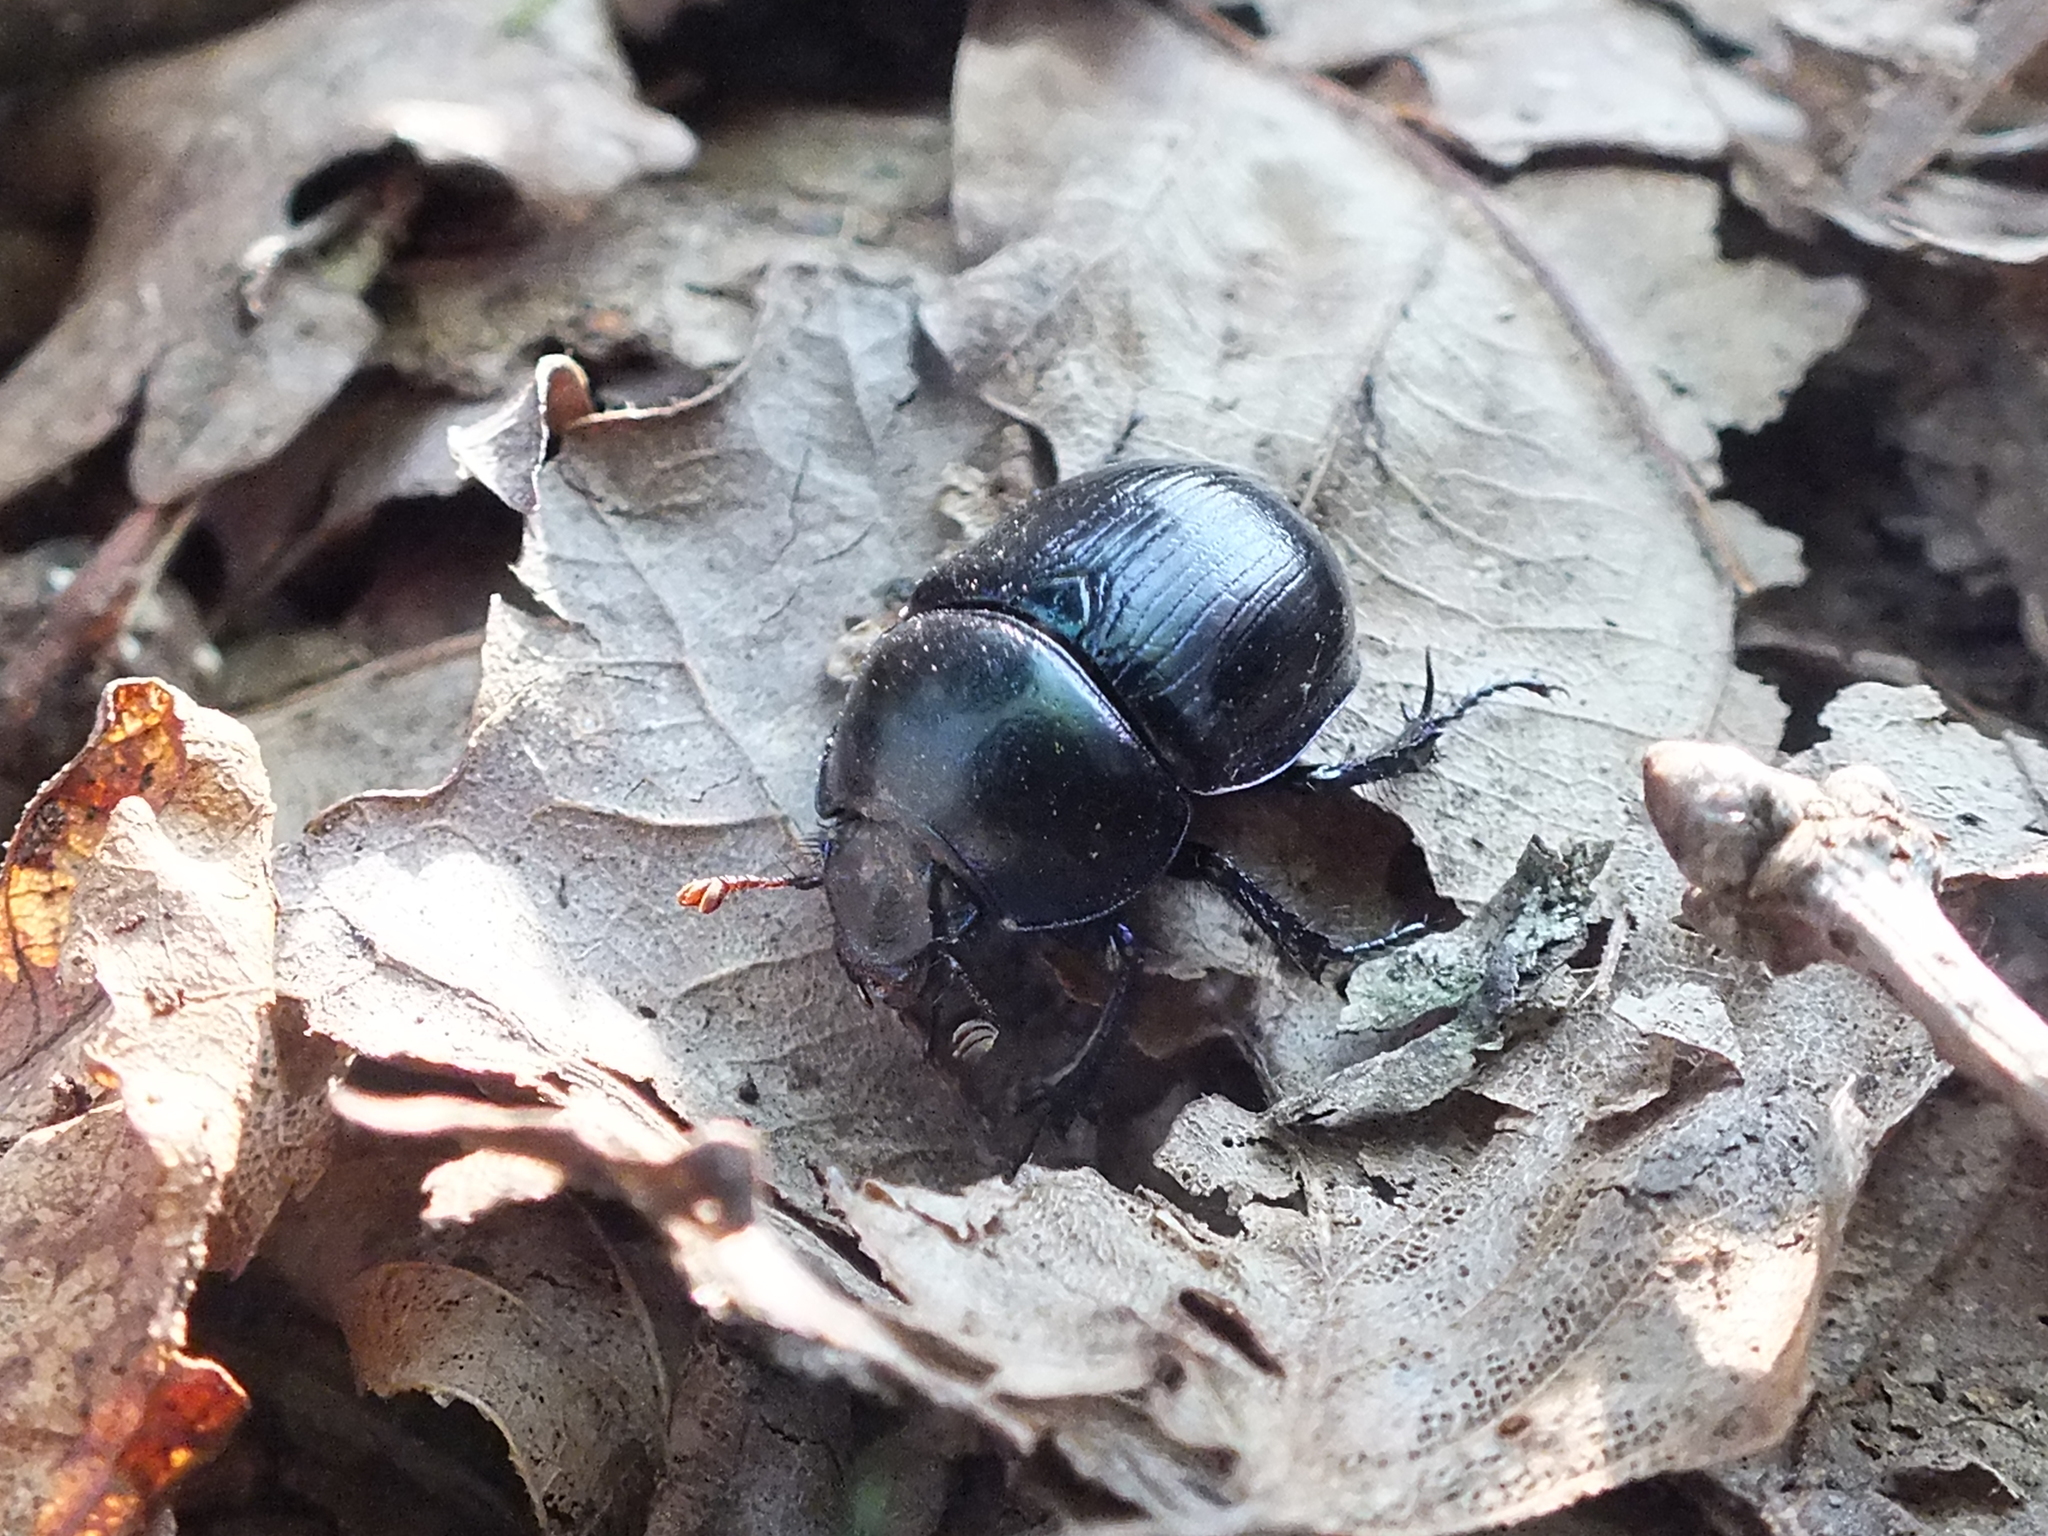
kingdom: Animalia
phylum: Arthropoda
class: Insecta
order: Coleoptera
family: Geotrupidae
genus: Anoplotrupes
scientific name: Anoplotrupes stercorosus
